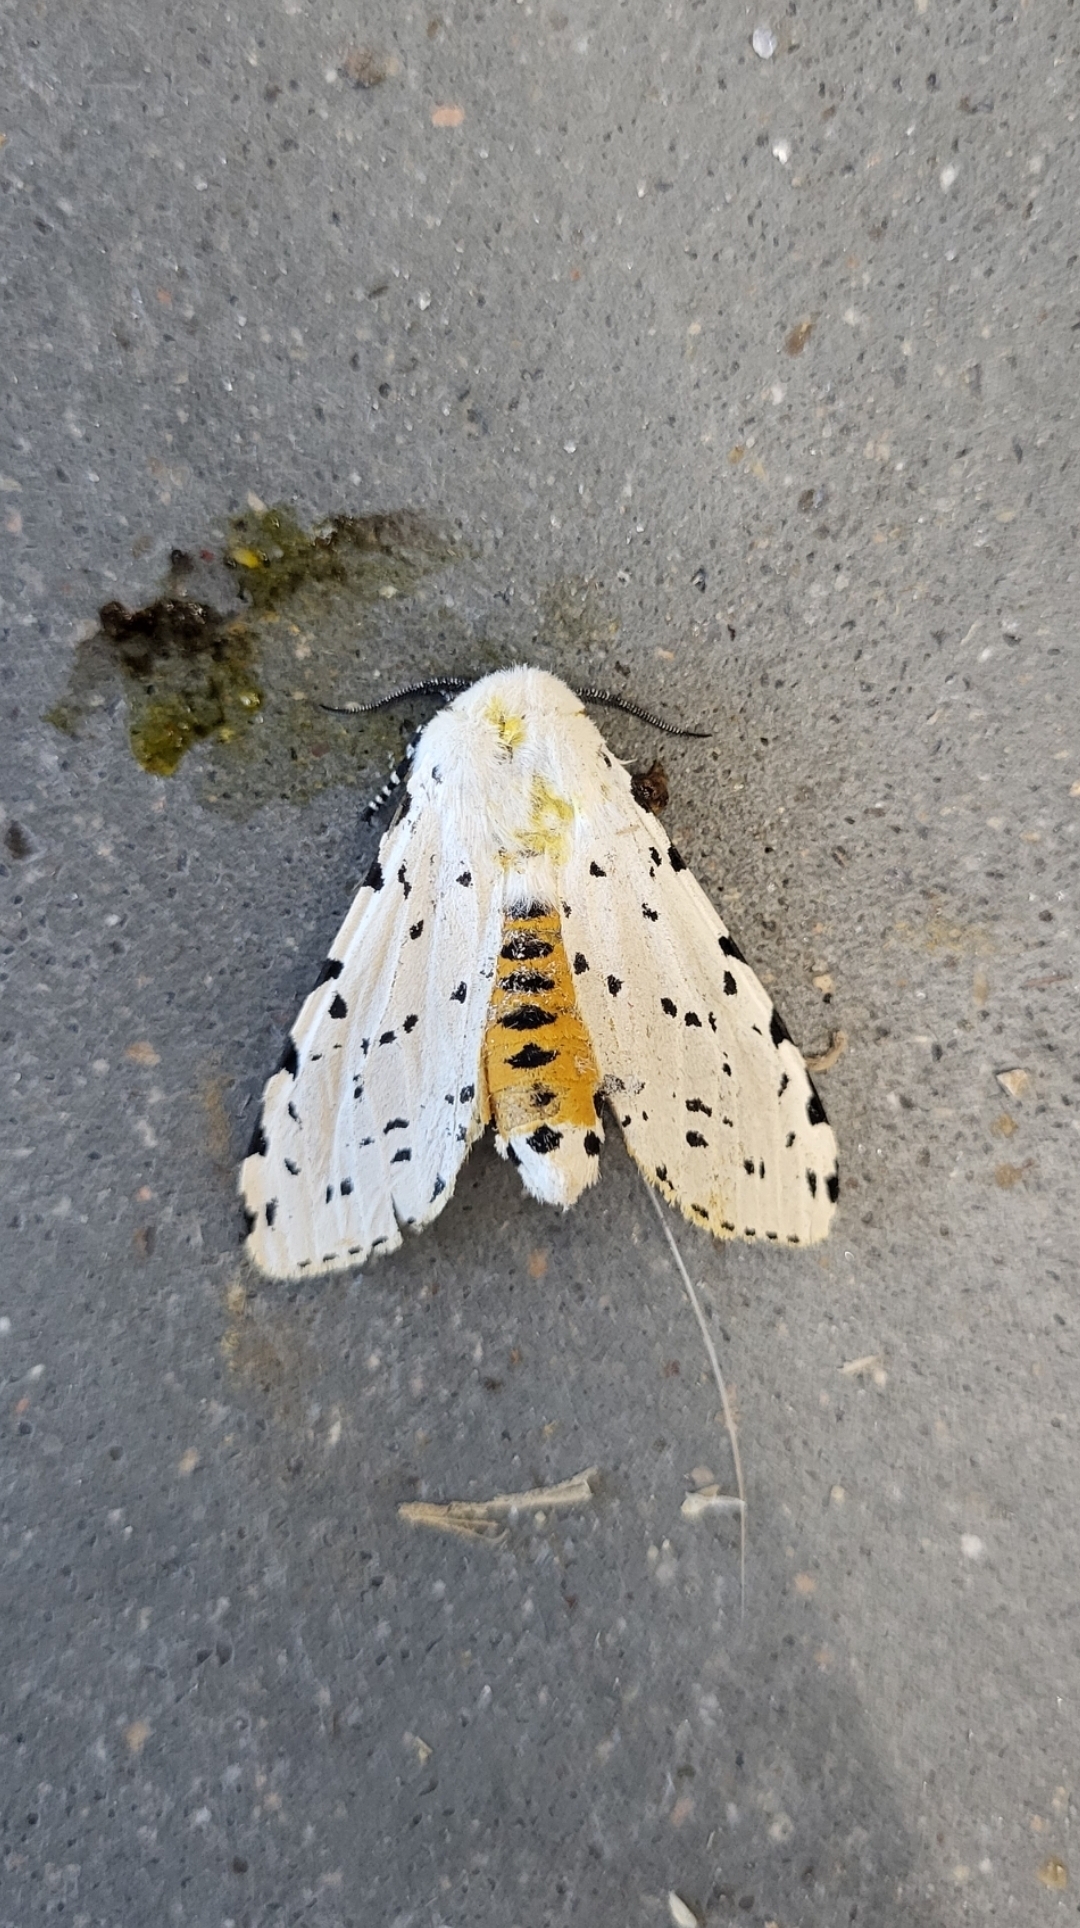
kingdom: Animalia
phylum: Arthropoda
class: Insecta
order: Lepidoptera
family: Erebidae
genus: Estigmene
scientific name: Estigmene acrea
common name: Salt marsh moth
